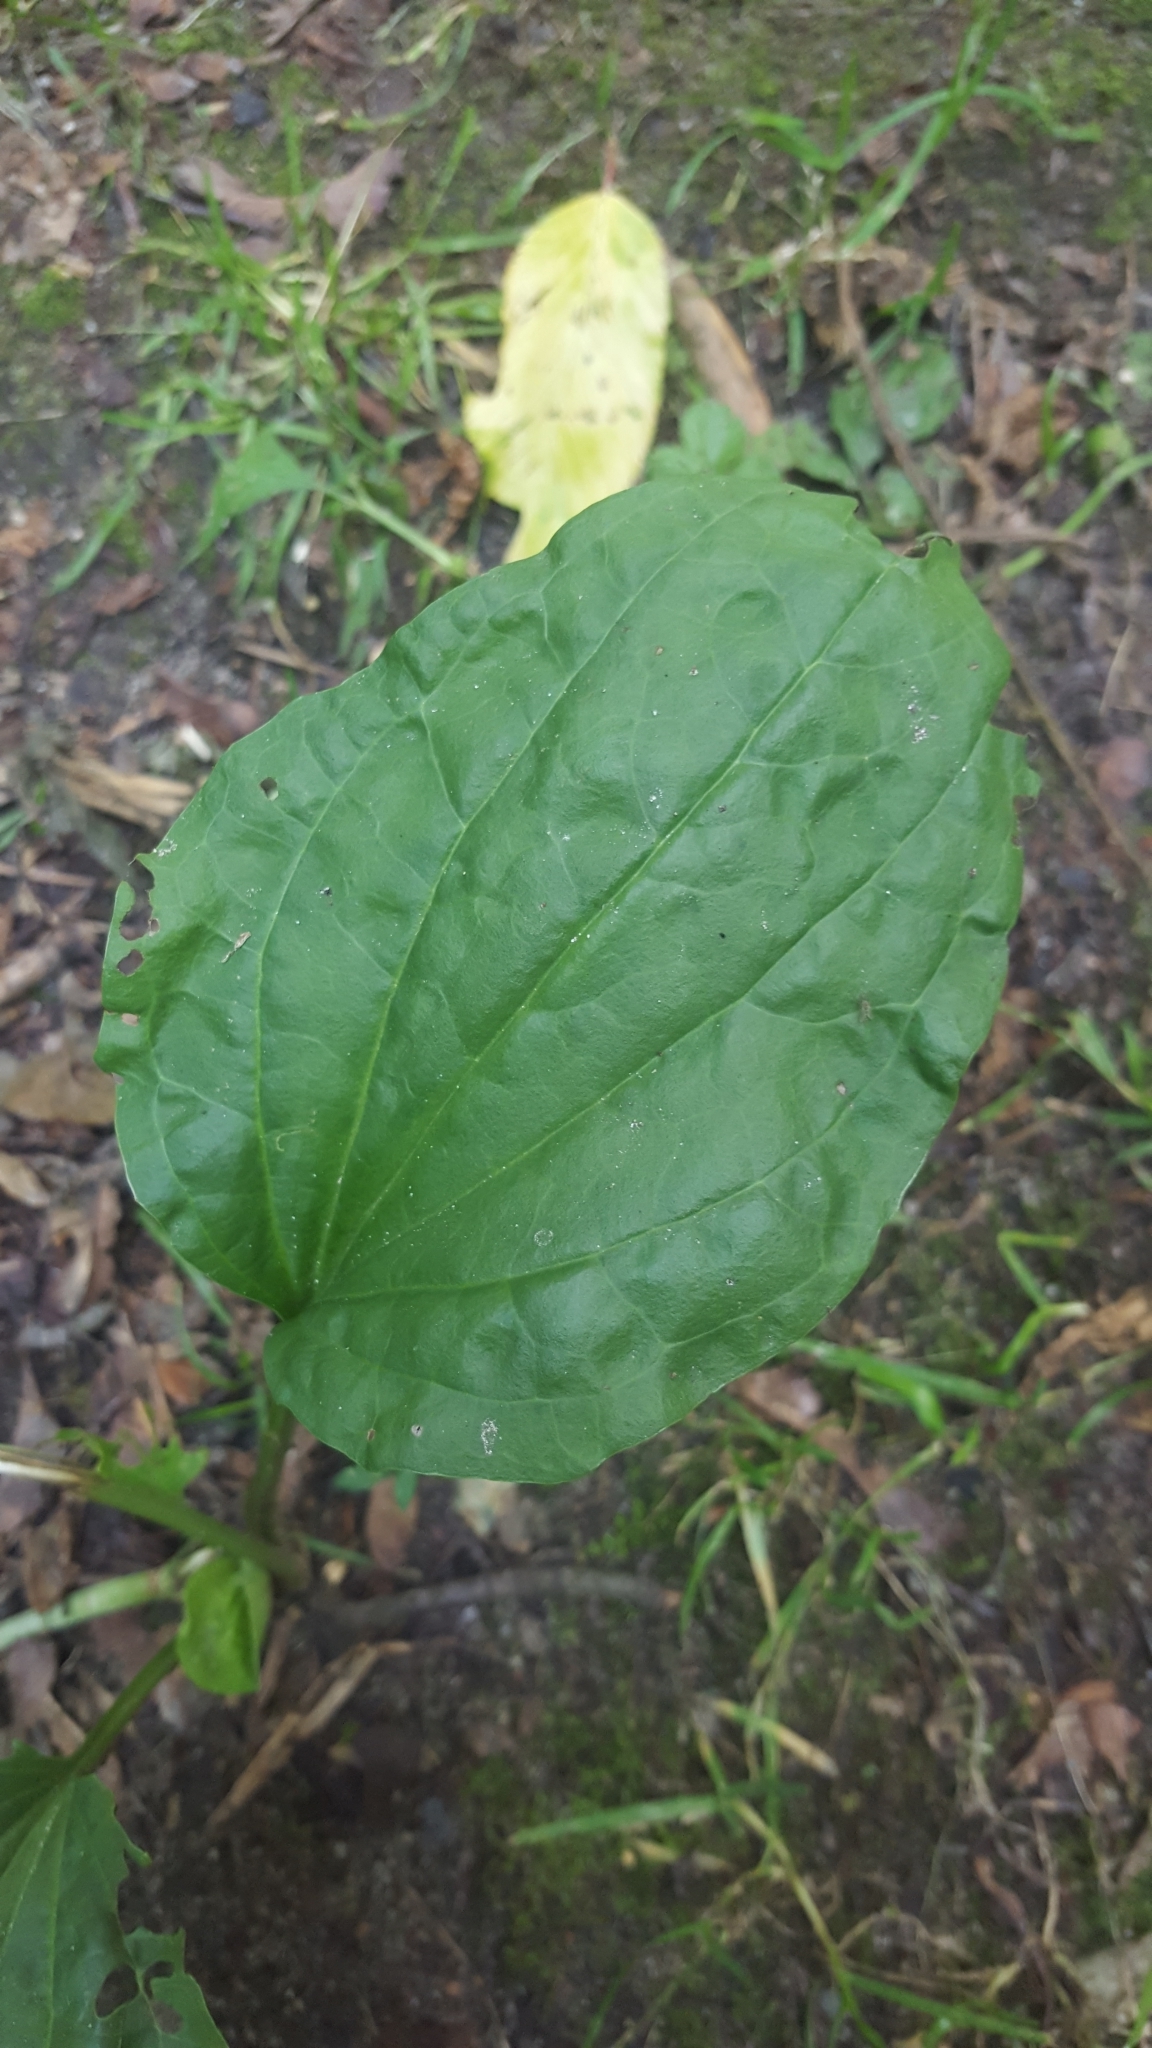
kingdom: Plantae
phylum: Tracheophyta
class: Magnoliopsida
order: Lamiales
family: Plantaginaceae
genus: Plantago
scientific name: Plantago major
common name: Common plantain
